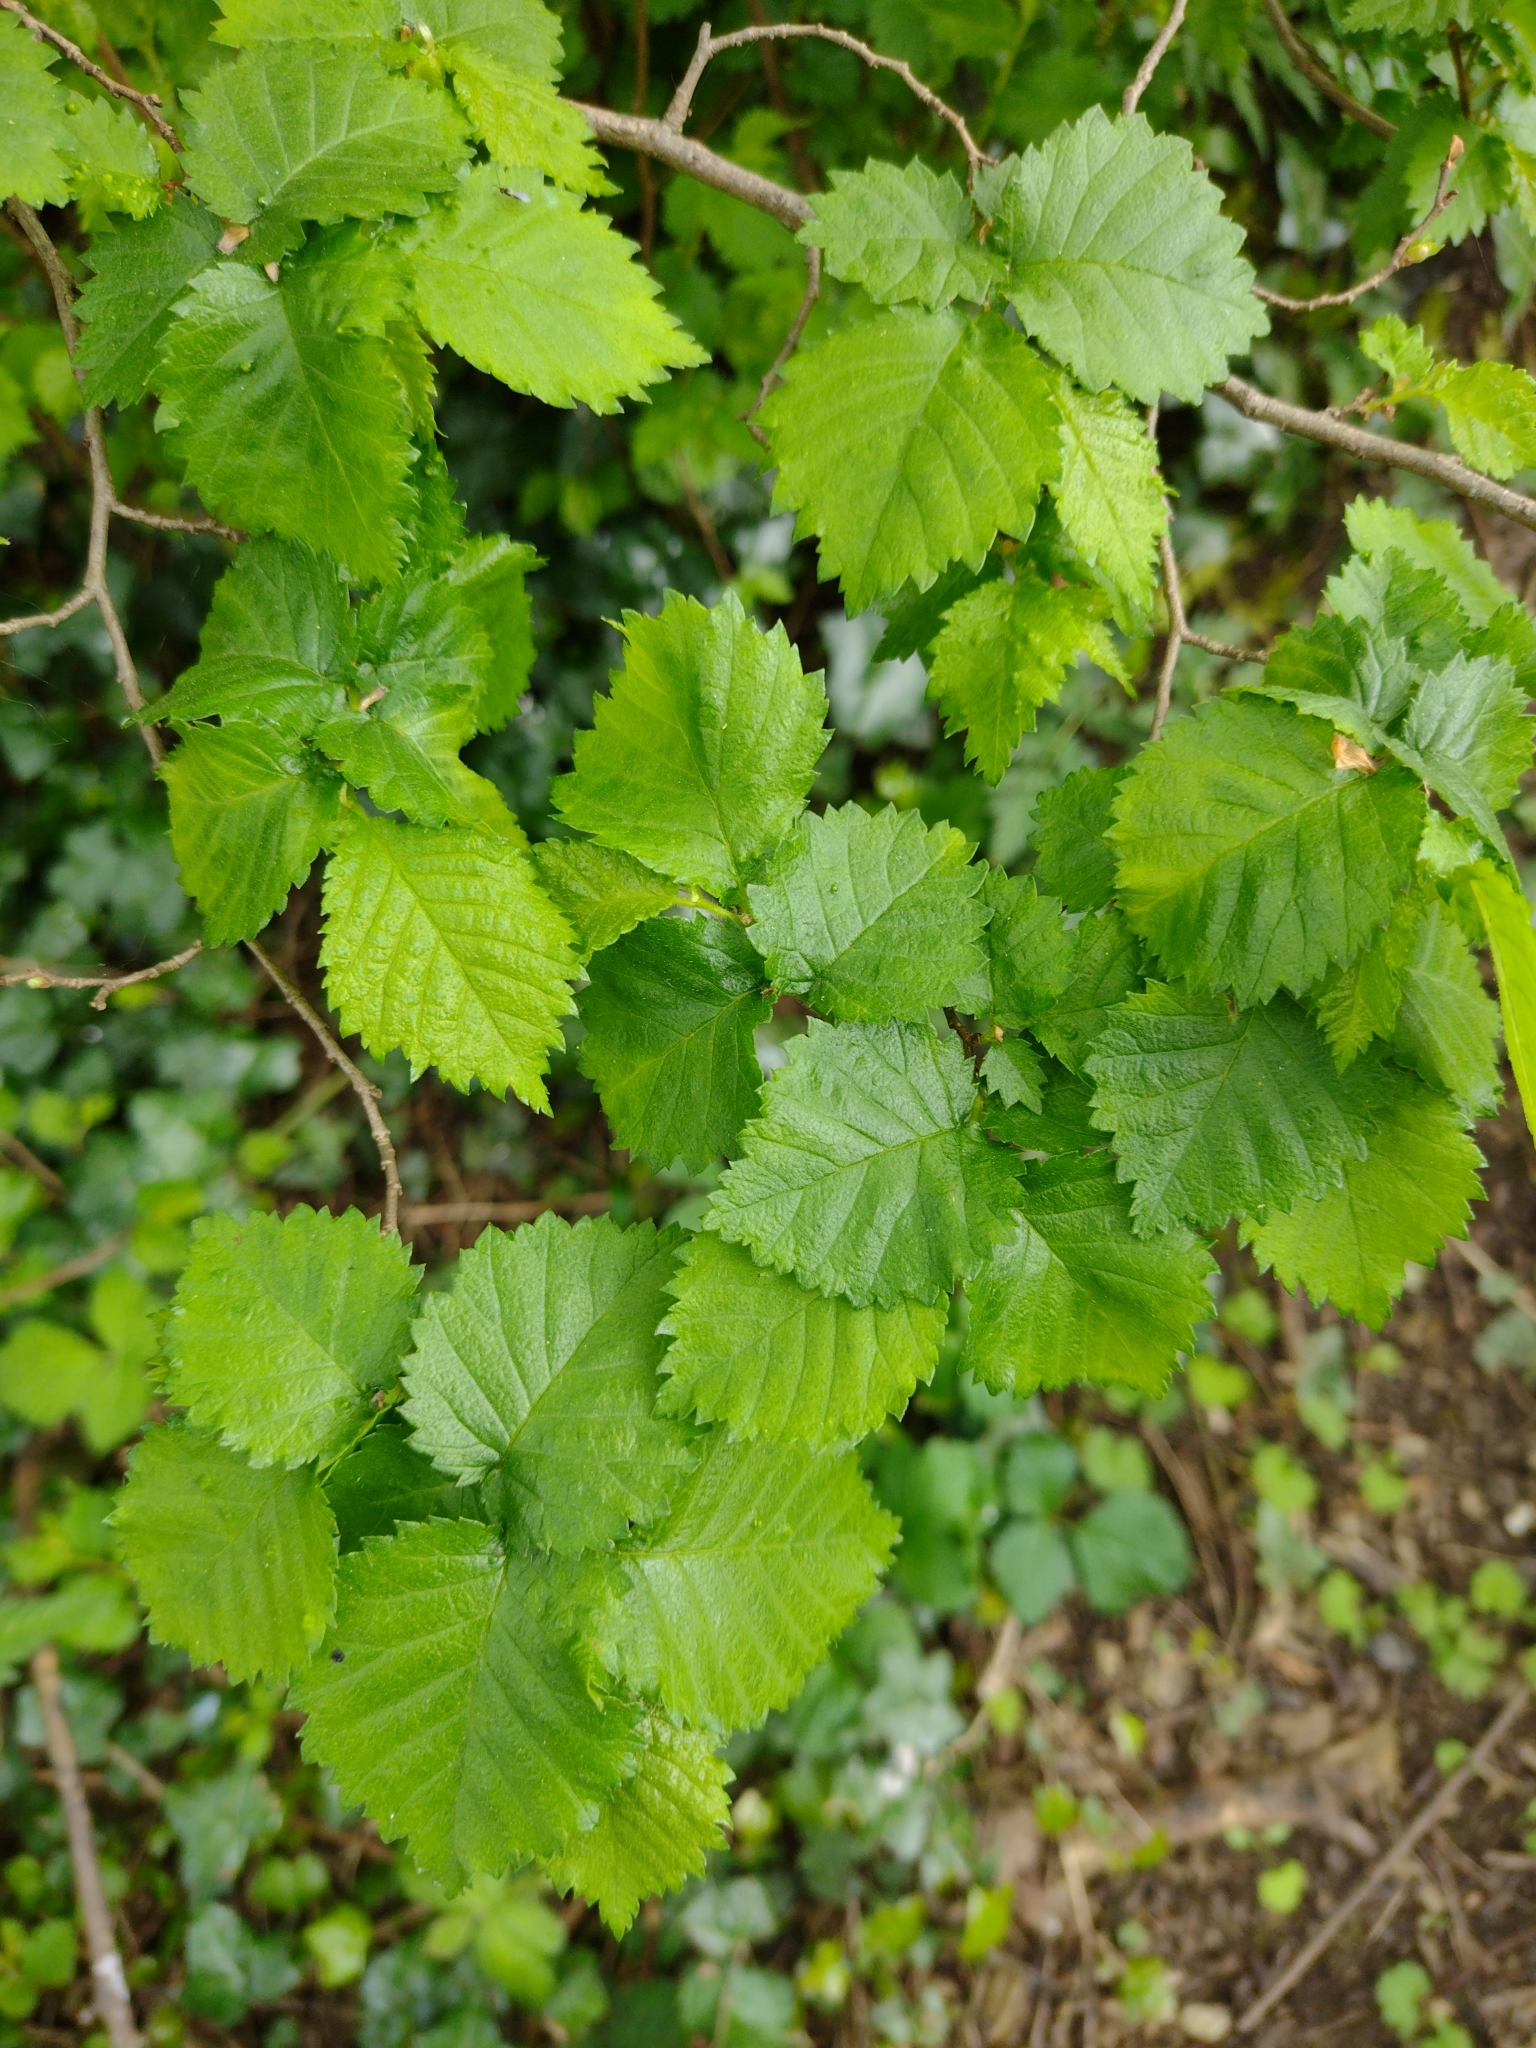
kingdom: Plantae
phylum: Tracheophyta
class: Magnoliopsida
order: Rosales
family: Ulmaceae
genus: Ulmus
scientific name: Ulmus minor
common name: Small-leaved elm
